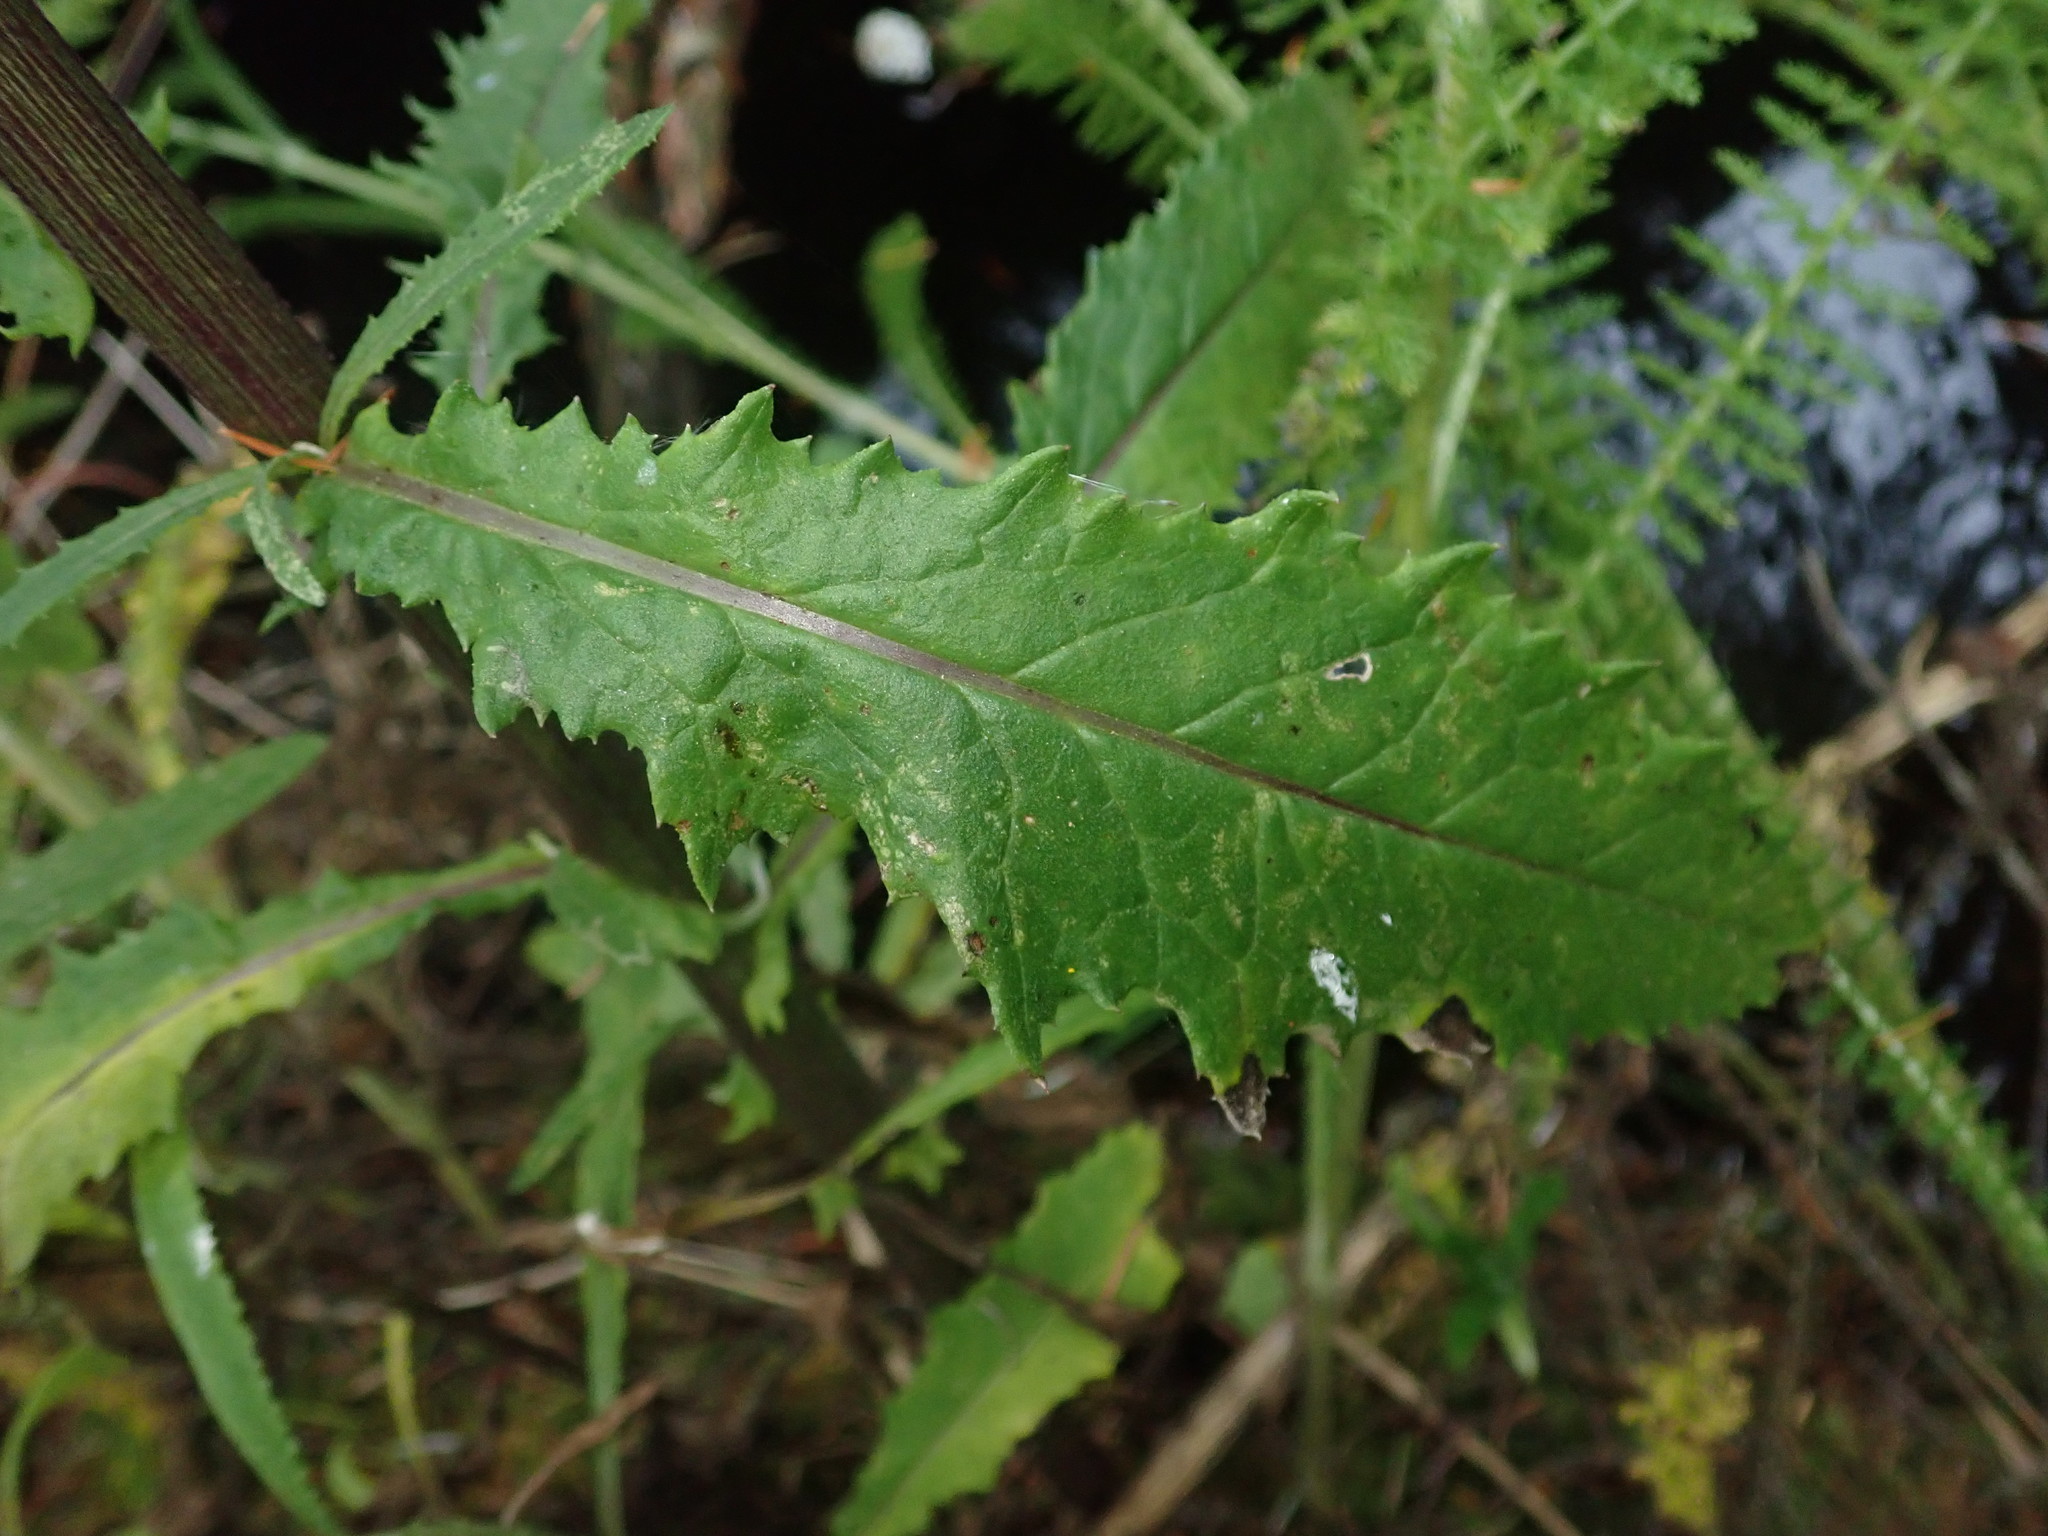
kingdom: Plantae
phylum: Tracheophyta
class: Magnoliopsida
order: Asterales
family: Asteraceae
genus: Senecio
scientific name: Senecio minimus
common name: Toothed fireweed
